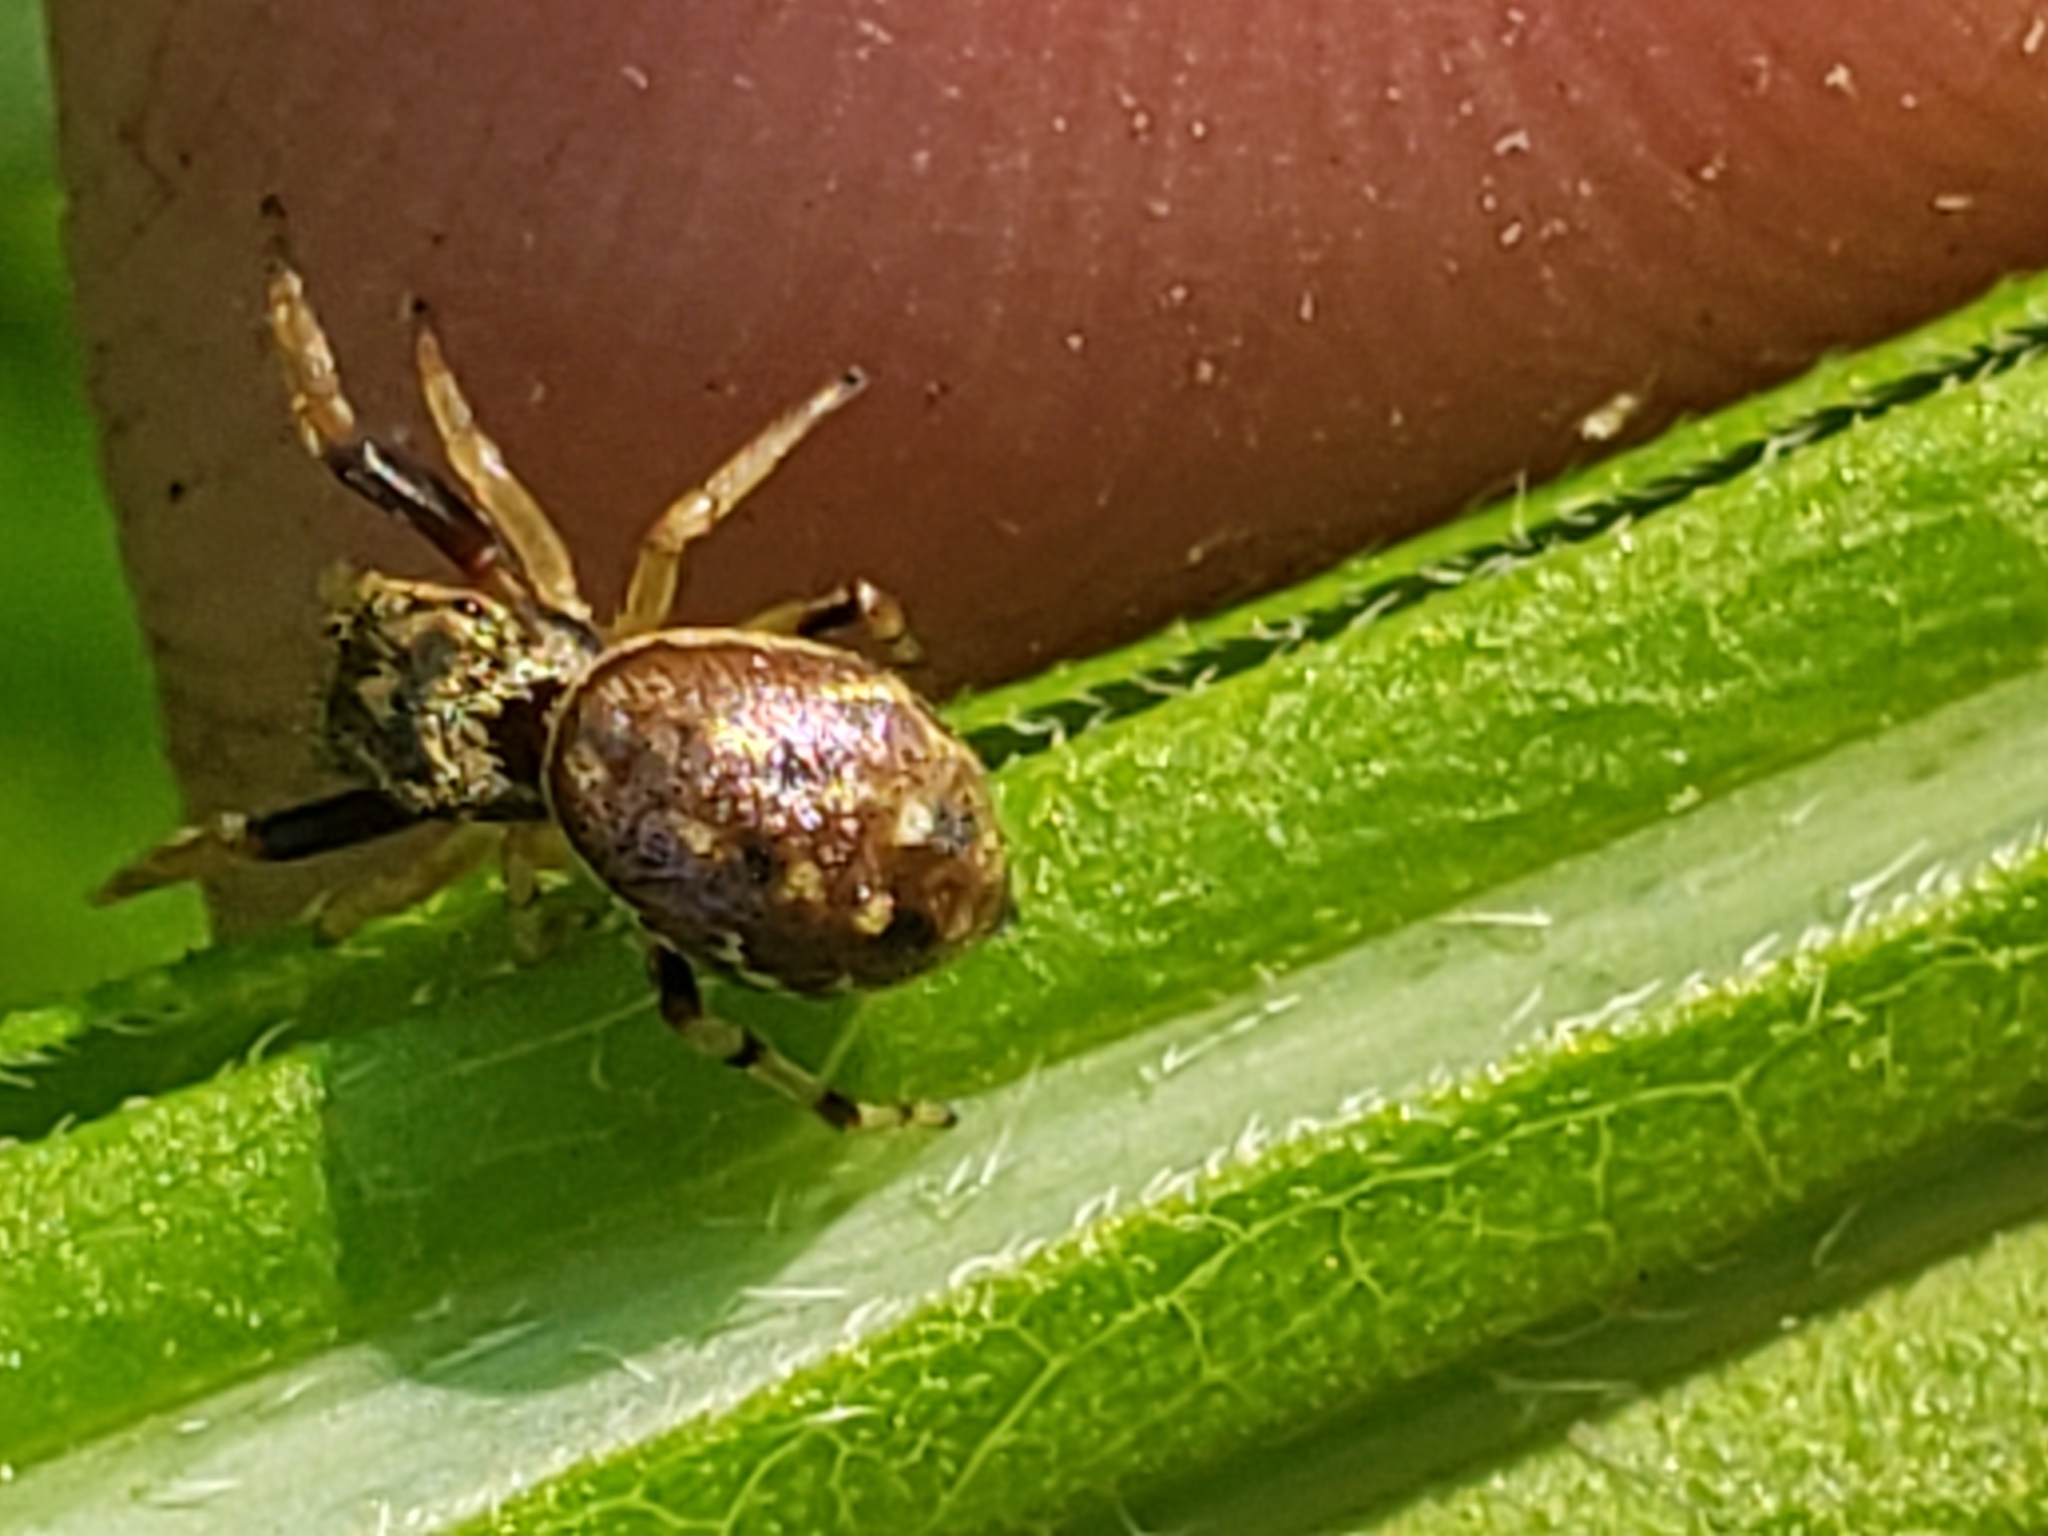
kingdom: Animalia
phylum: Arthropoda
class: Arachnida
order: Araneae
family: Salticidae
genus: Zygoballus
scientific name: Zygoballus rufipes
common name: Jumping spiders
